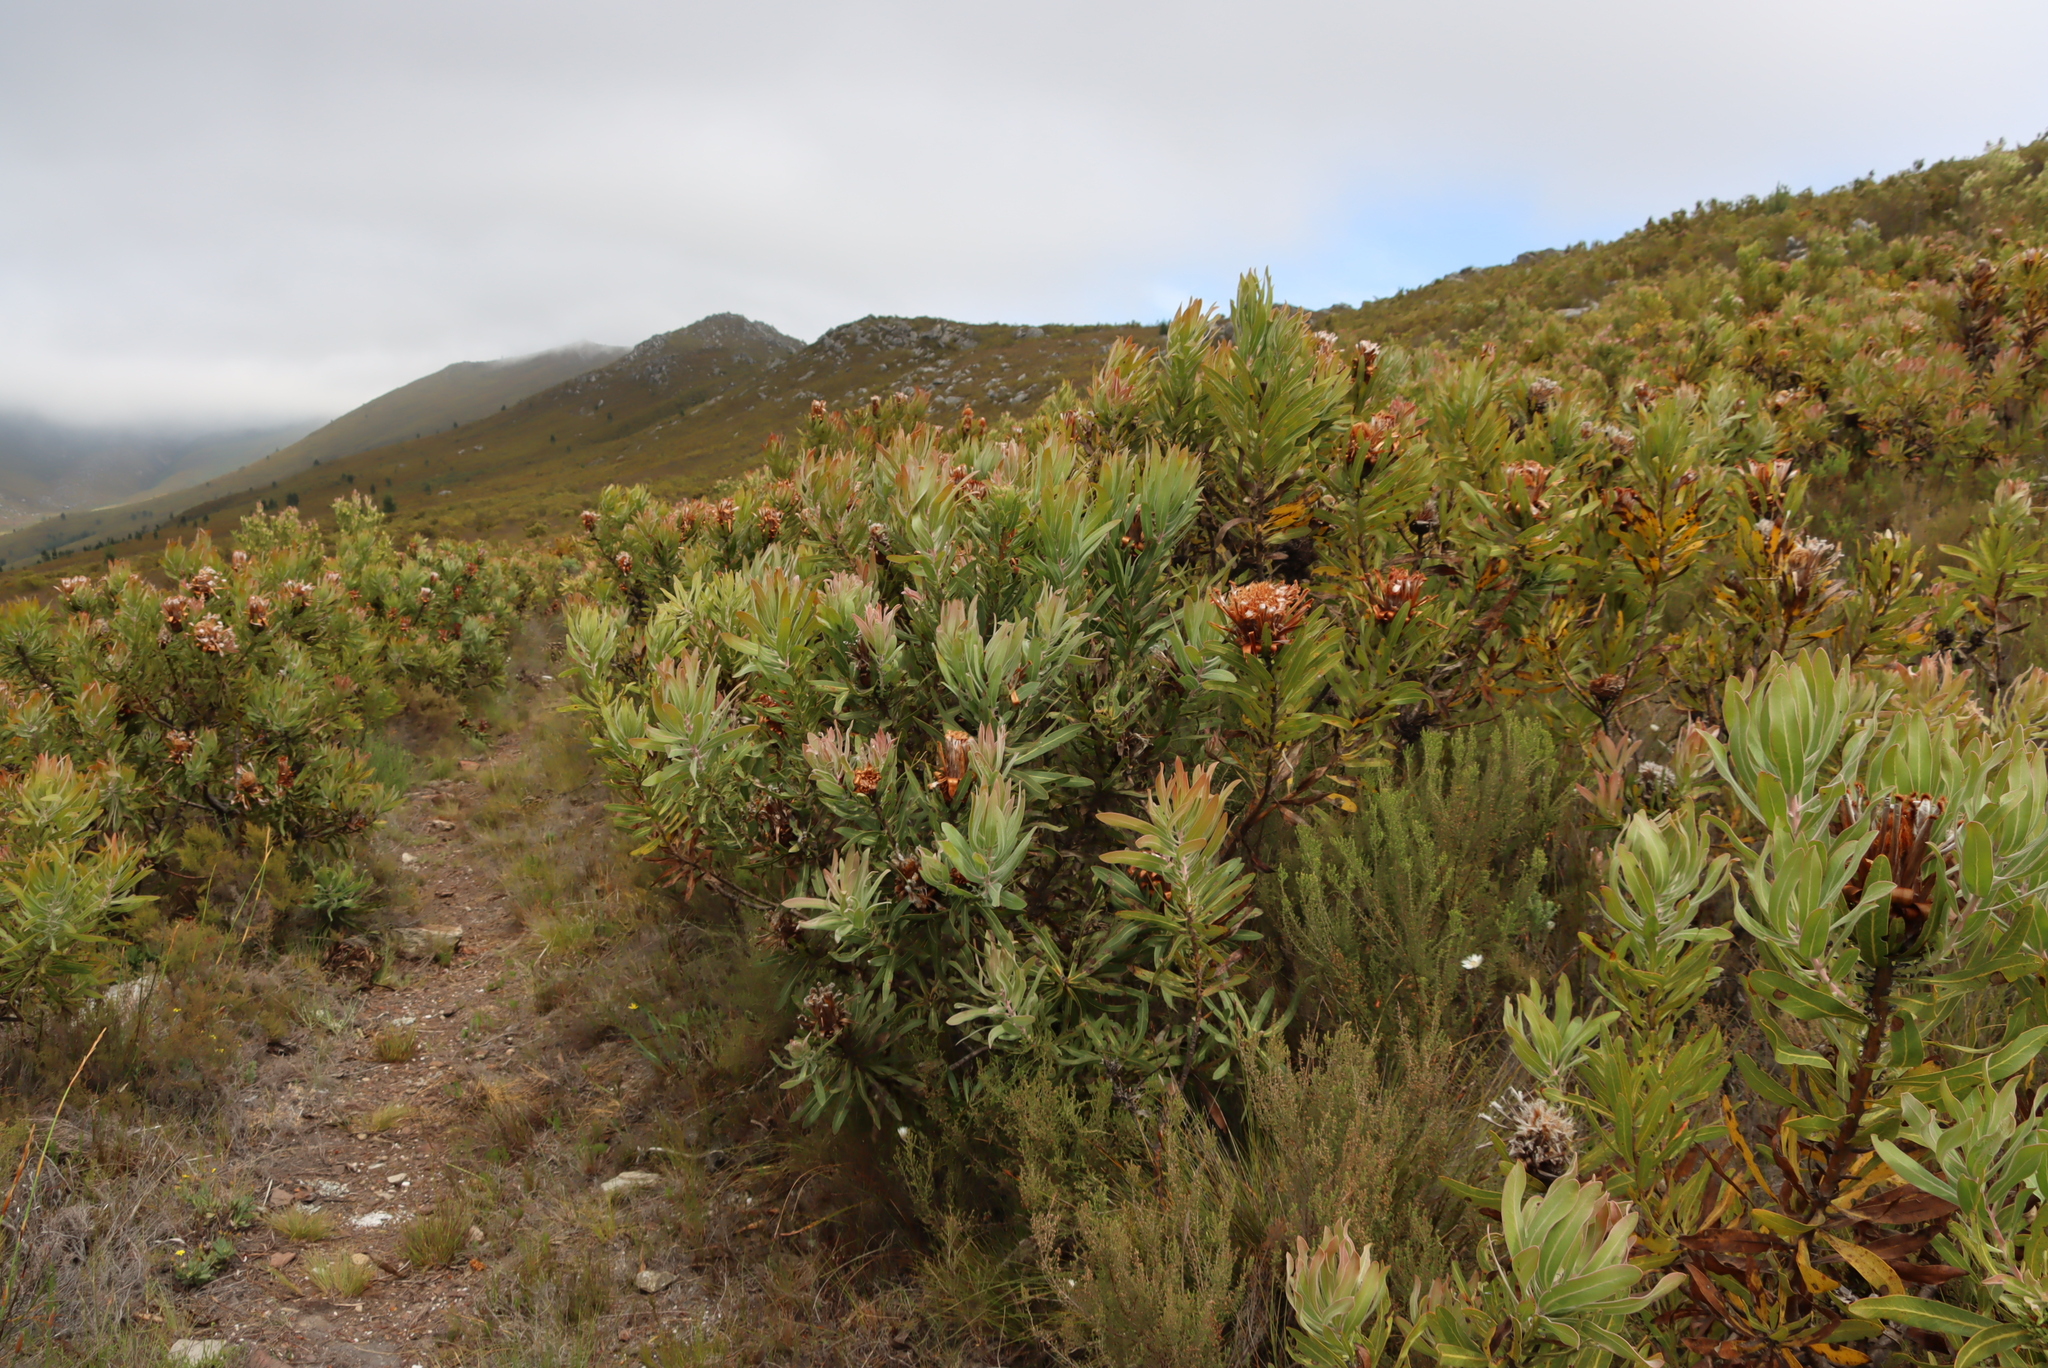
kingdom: Plantae
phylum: Tracheophyta
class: Magnoliopsida
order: Proteales
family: Proteaceae
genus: Protea
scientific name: Protea neriifolia
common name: Blue sugarbush
